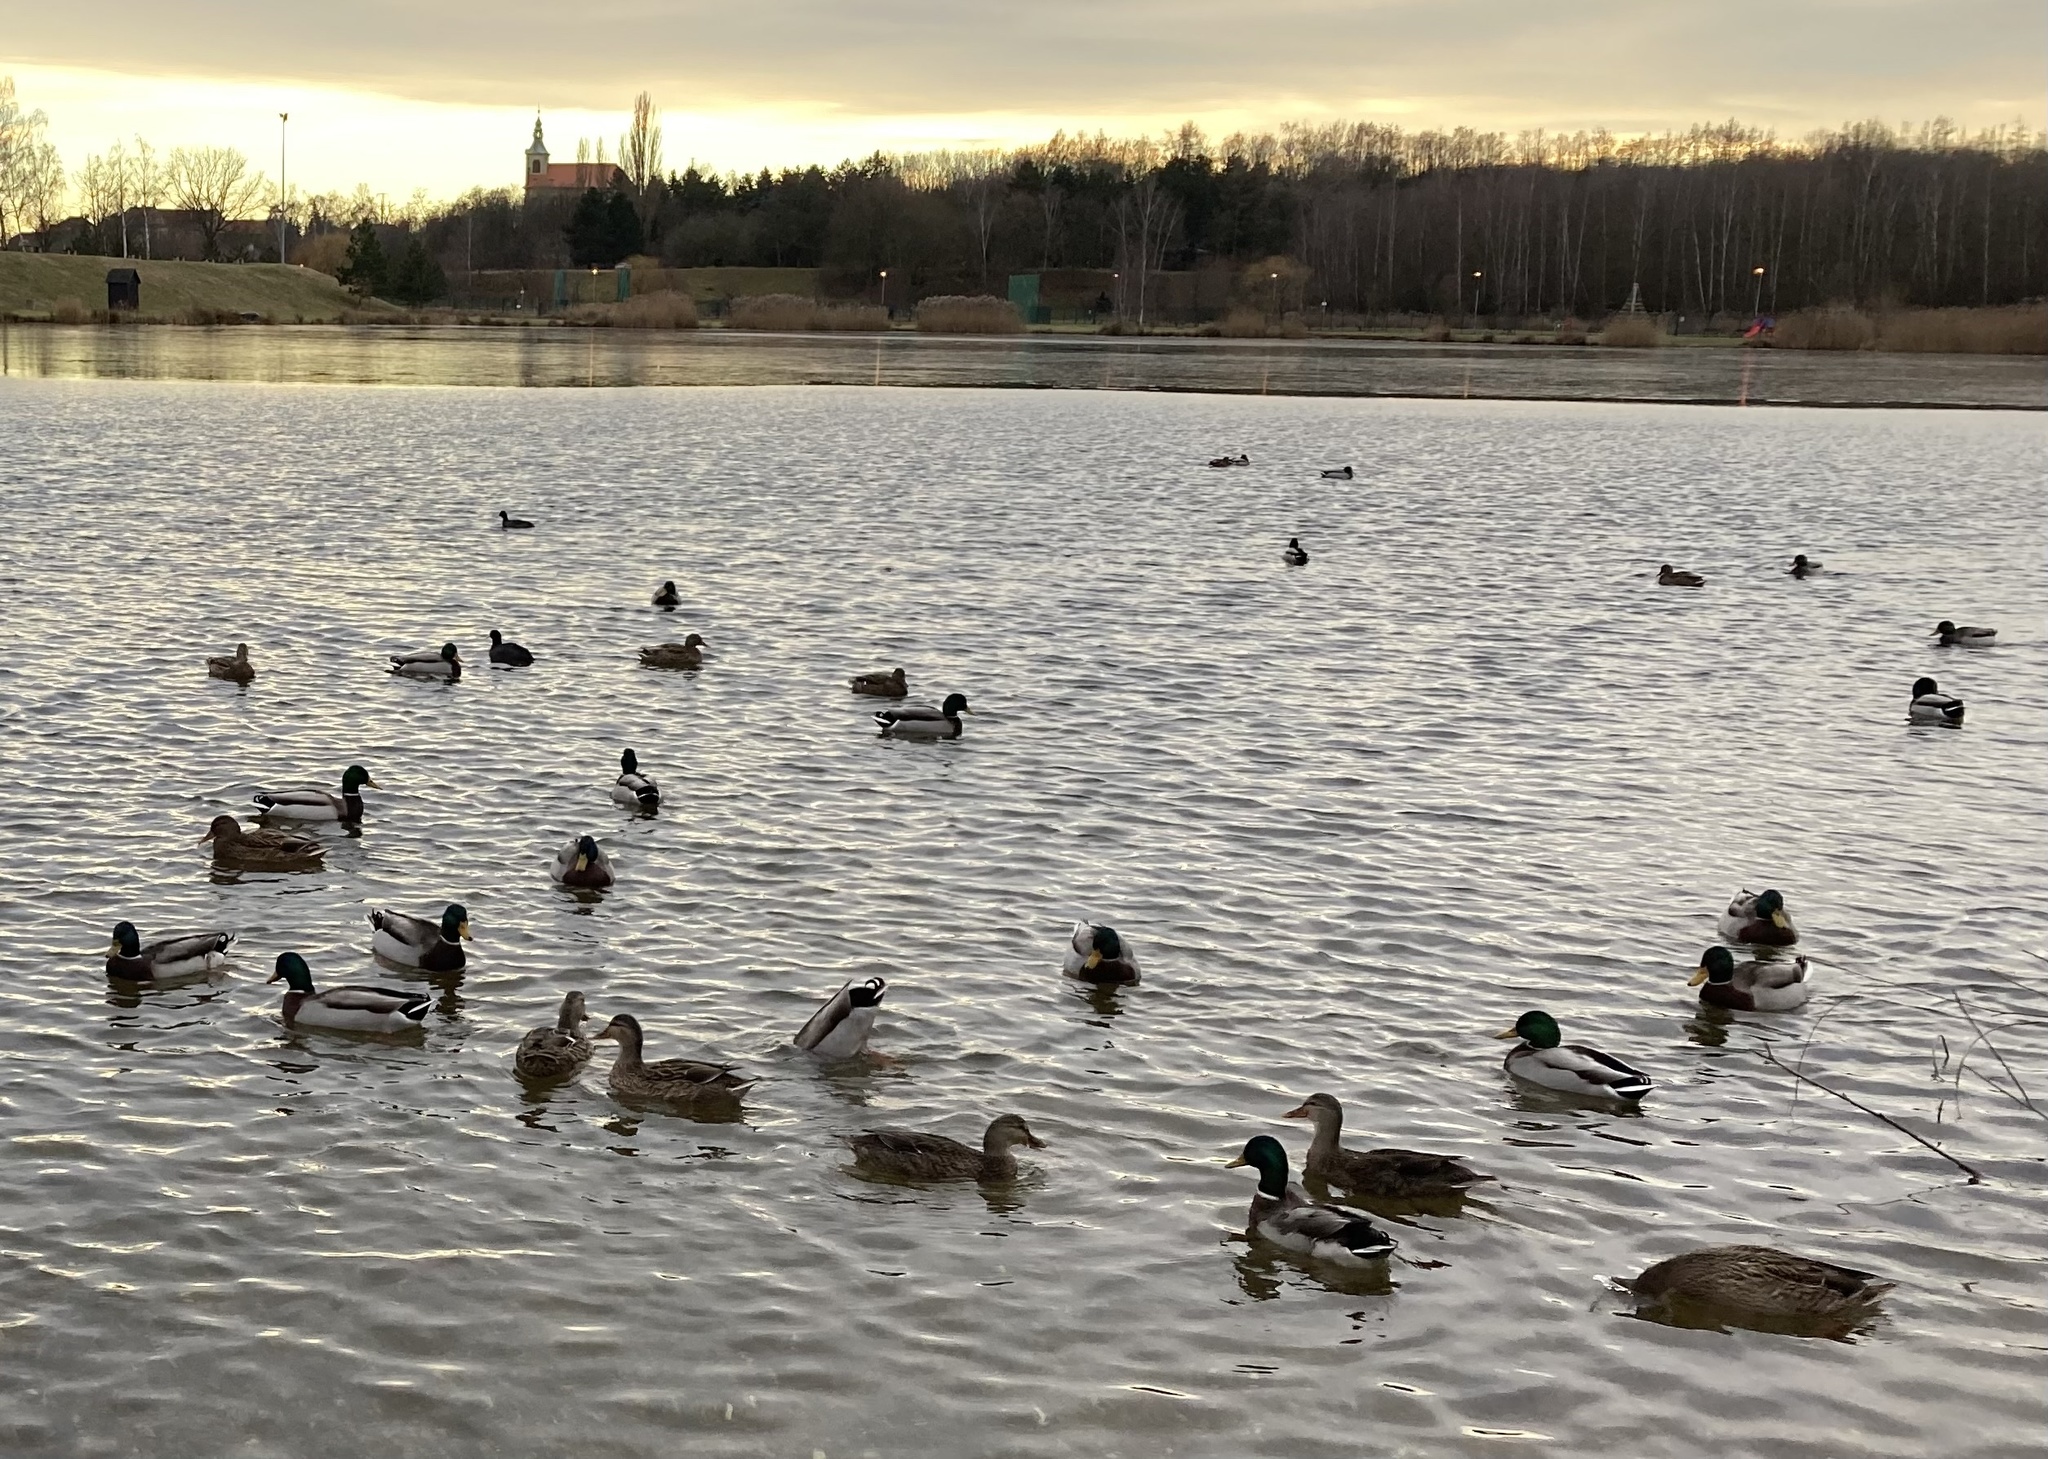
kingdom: Animalia
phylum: Chordata
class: Aves
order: Anseriformes
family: Anatidae
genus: Anas
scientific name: Anas platyrhynchos
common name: Mallard
